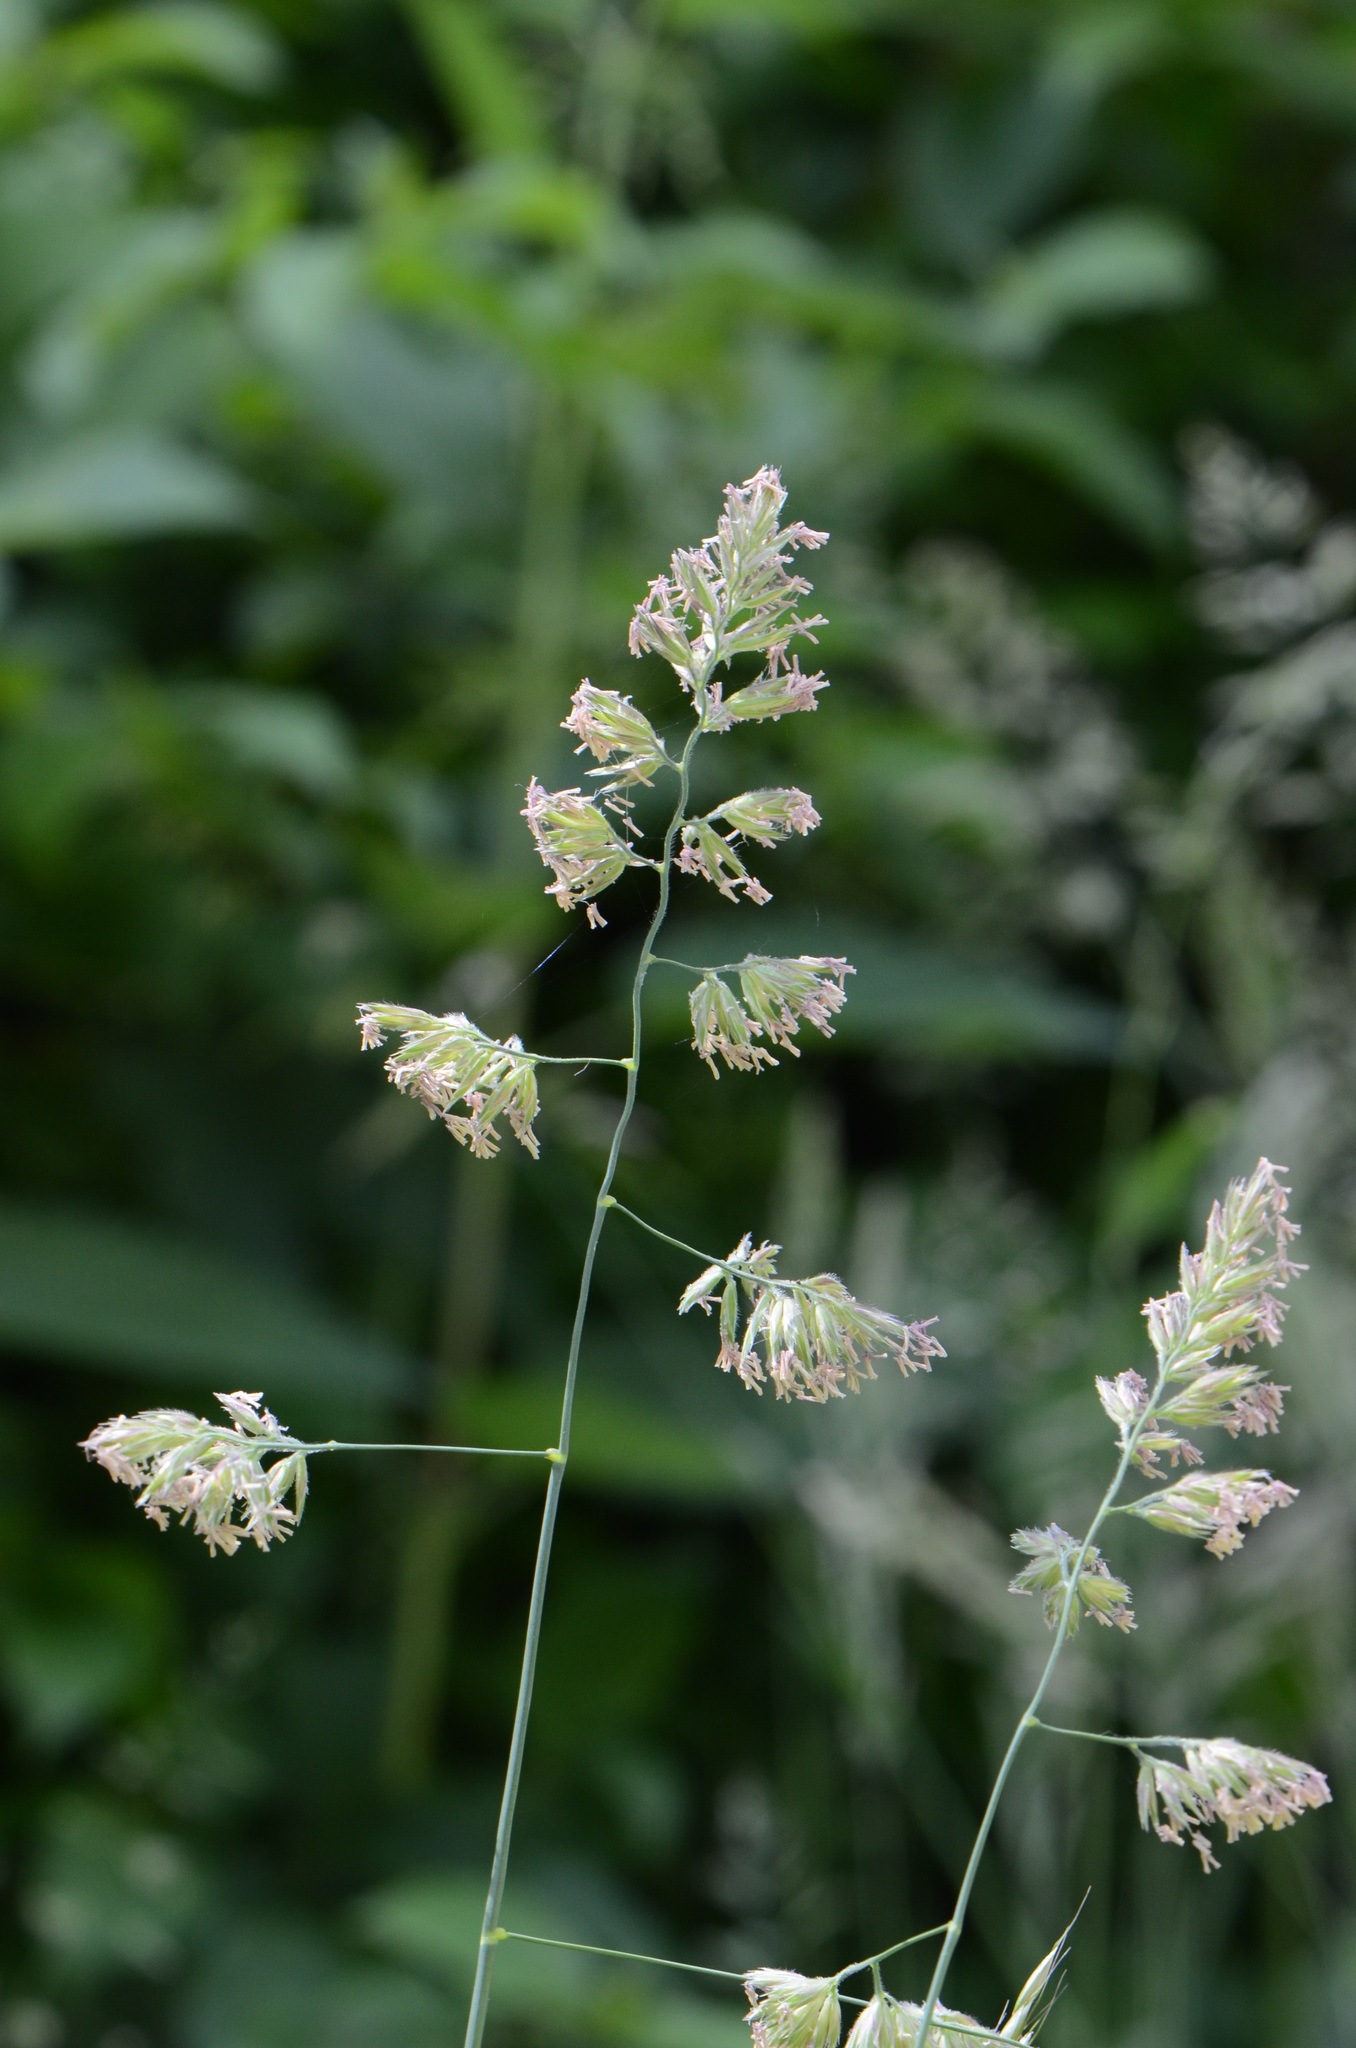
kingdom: Plantae
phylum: Tracheophyta
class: Liliopsida
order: Poales
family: Poaceae
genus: Dactylis
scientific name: Dactylis glomerata
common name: Orchardgrass
